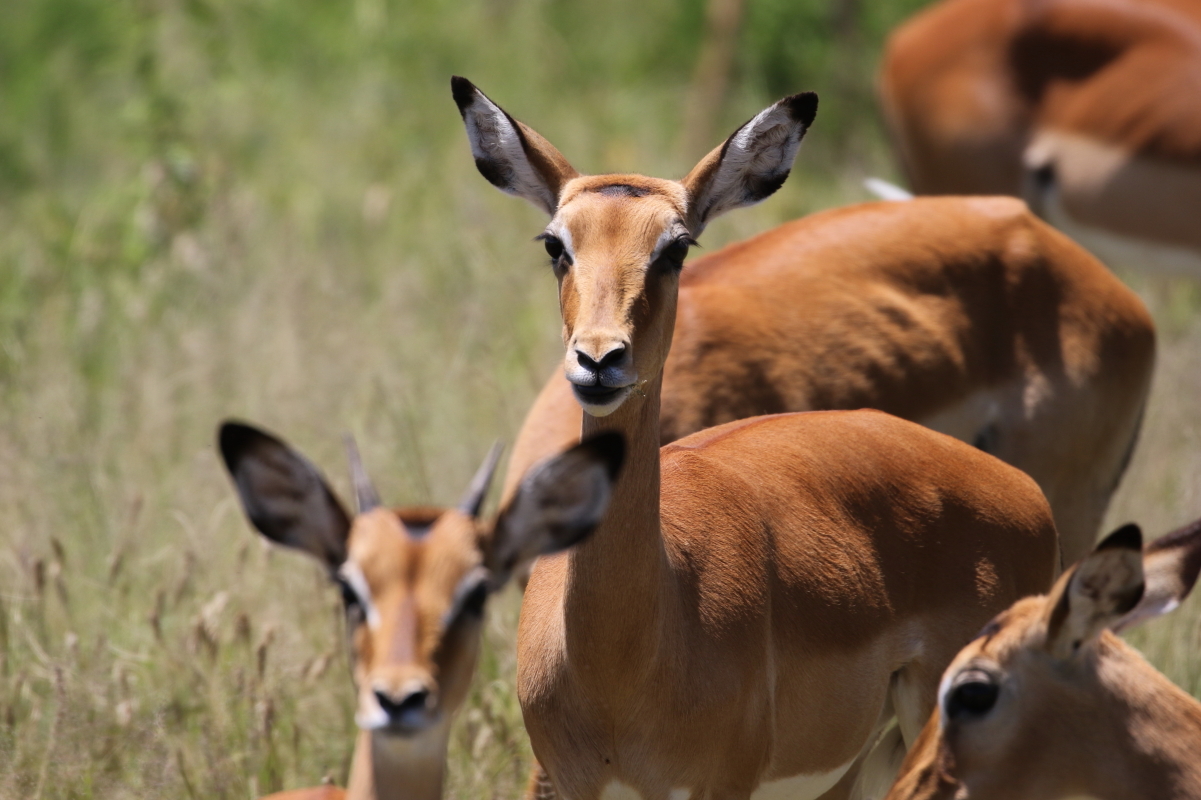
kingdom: Animalia
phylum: Chordata
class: Mammalia
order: Artiodactyla
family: Bovidae
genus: Aepyceros
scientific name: Aepyceros melampus
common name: Impala
